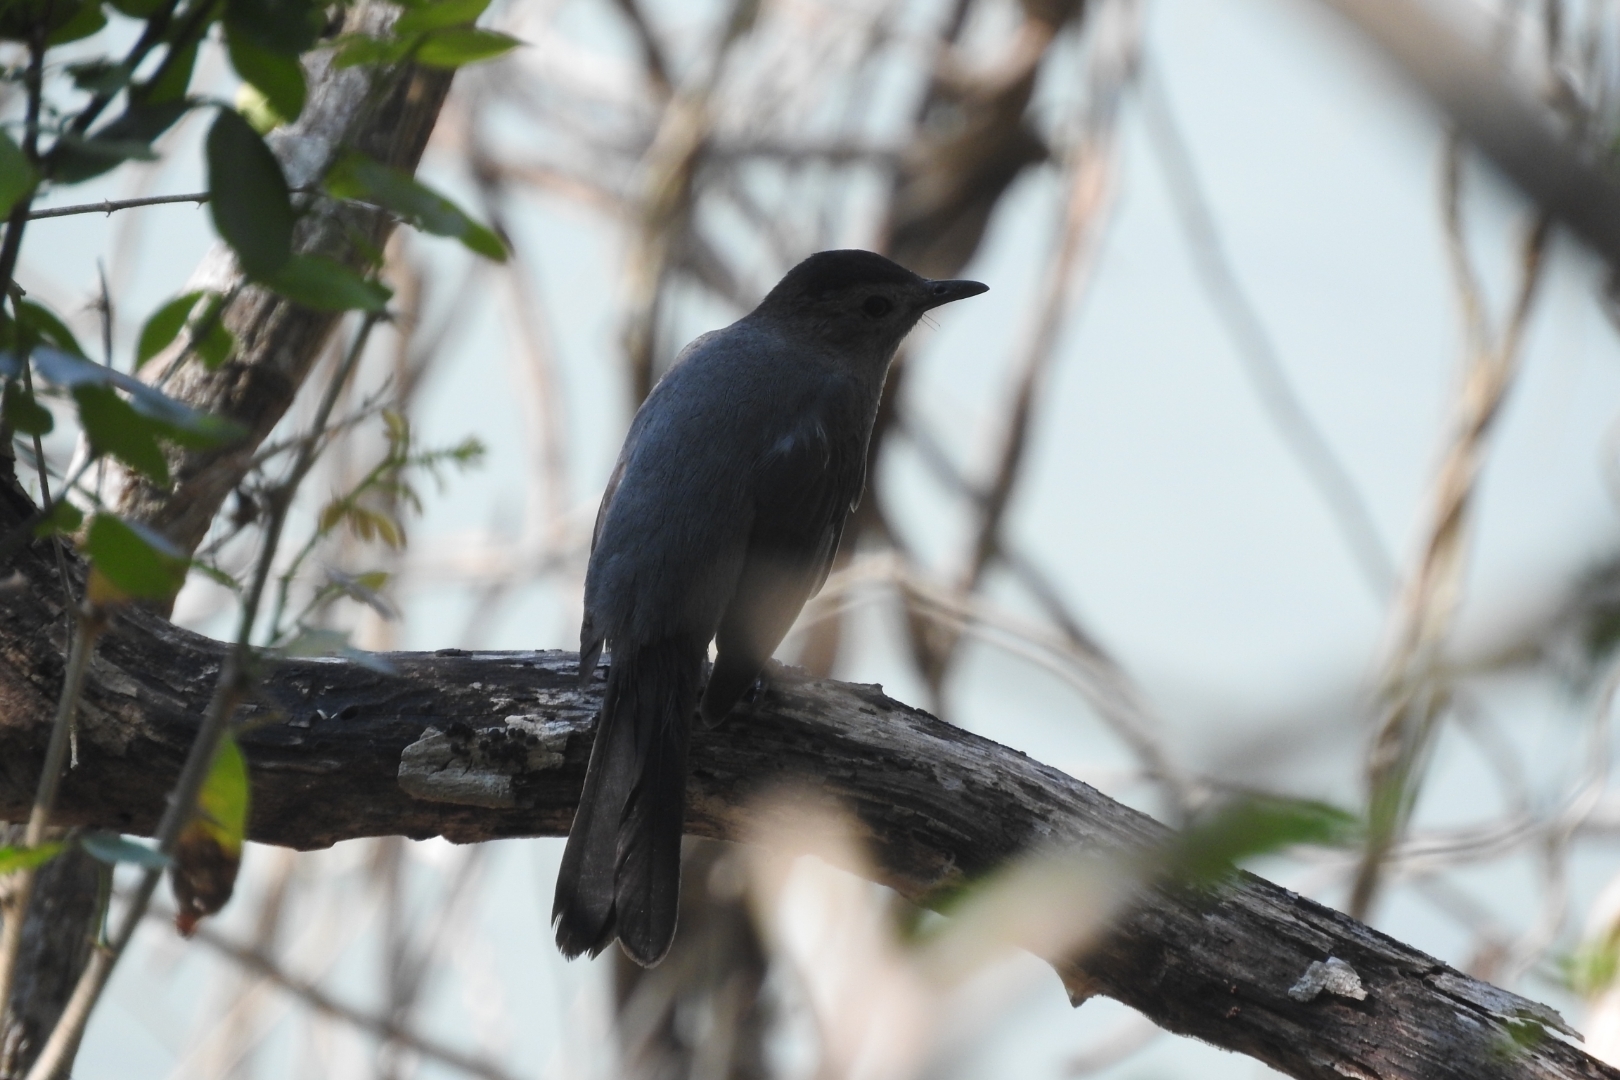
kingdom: Animalia
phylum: Chordata
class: Aves
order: Passeriformes
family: Mimidae
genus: Dumetella
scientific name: Dumetella carolinensis
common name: Gray catbird
